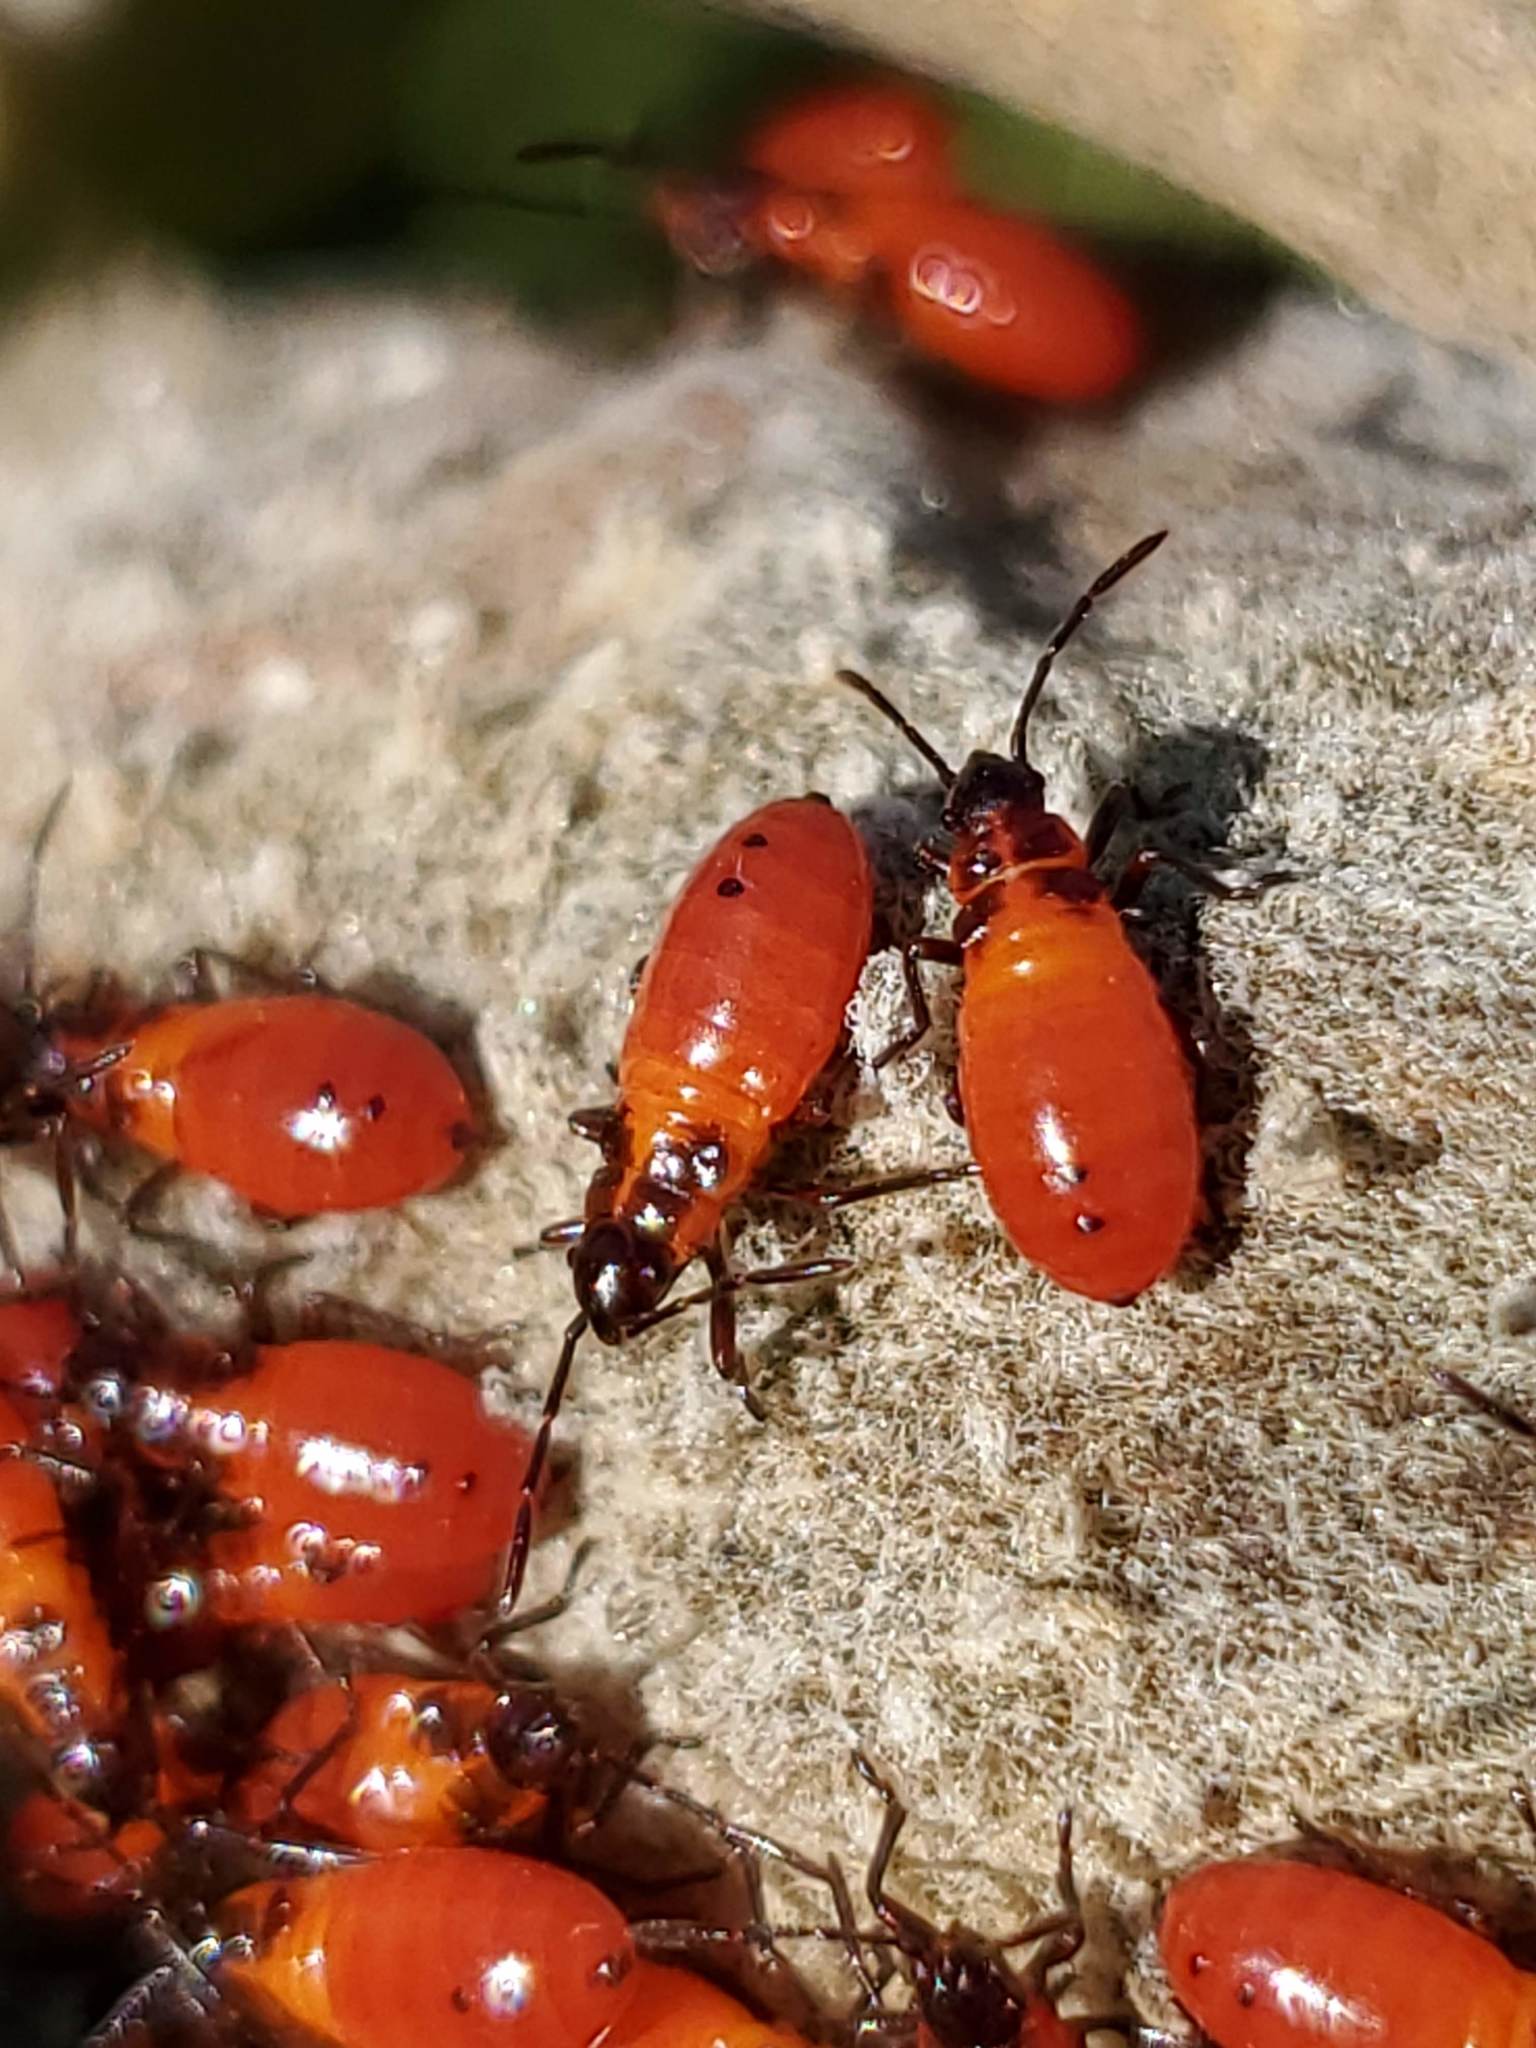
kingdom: Animalia
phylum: Arthropoda
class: Insecta
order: Hemiptera
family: Lygaeidae
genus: Oncopeltus
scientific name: Oncopeltus fasciatus
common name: Large milkweed bug
